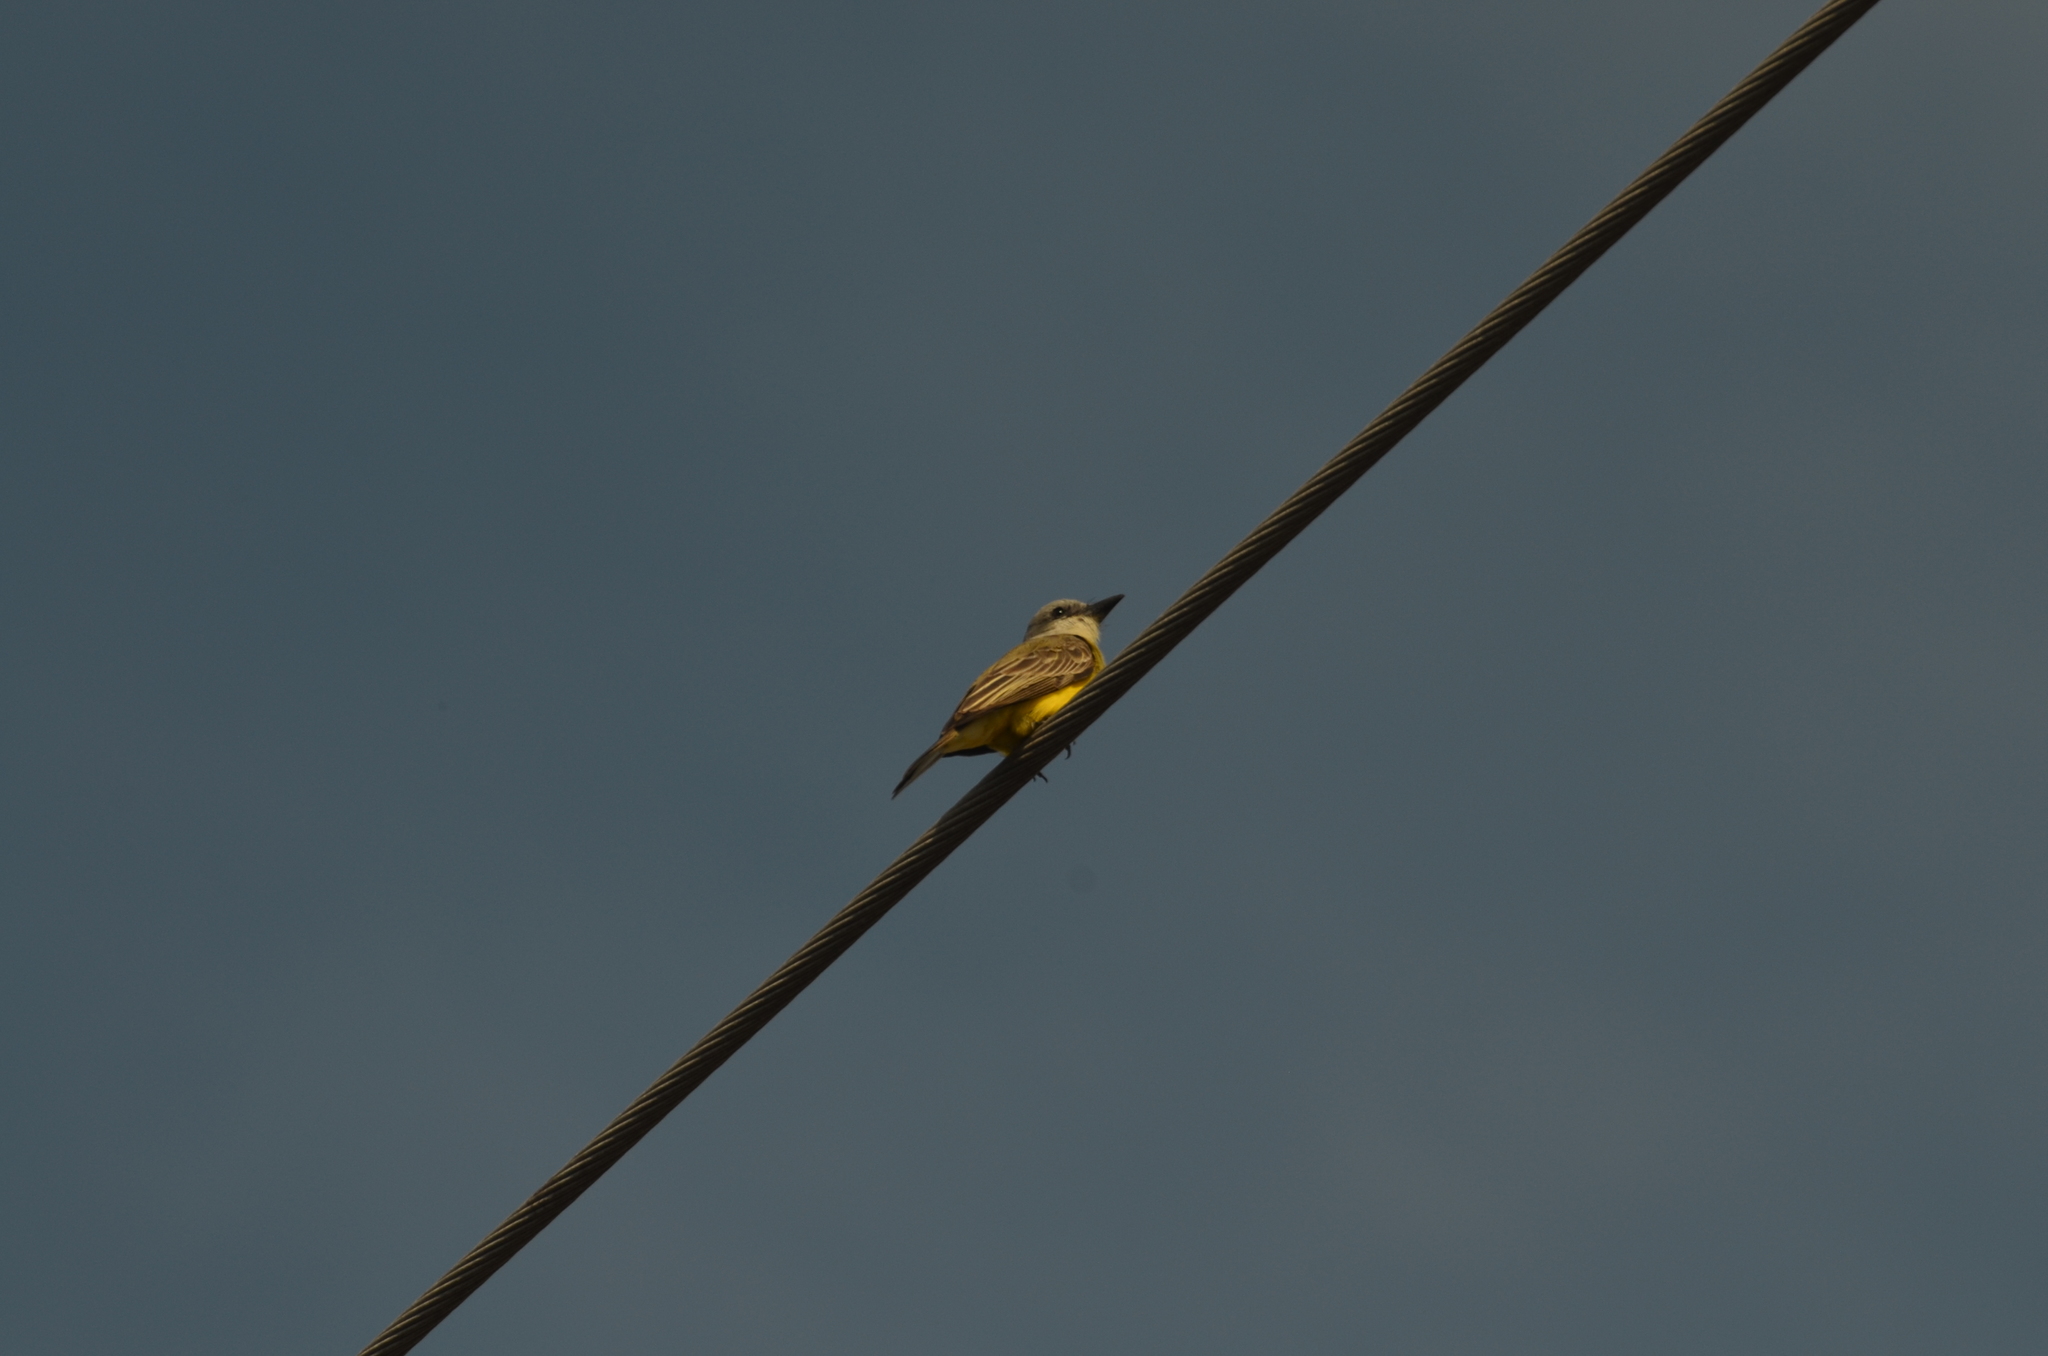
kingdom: Animalia
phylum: Chordata
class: Aves
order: Passeriformes
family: Tyrannidae
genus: Tyrannus
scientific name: Tyrannus melancholicus
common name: Tropical kingbird
